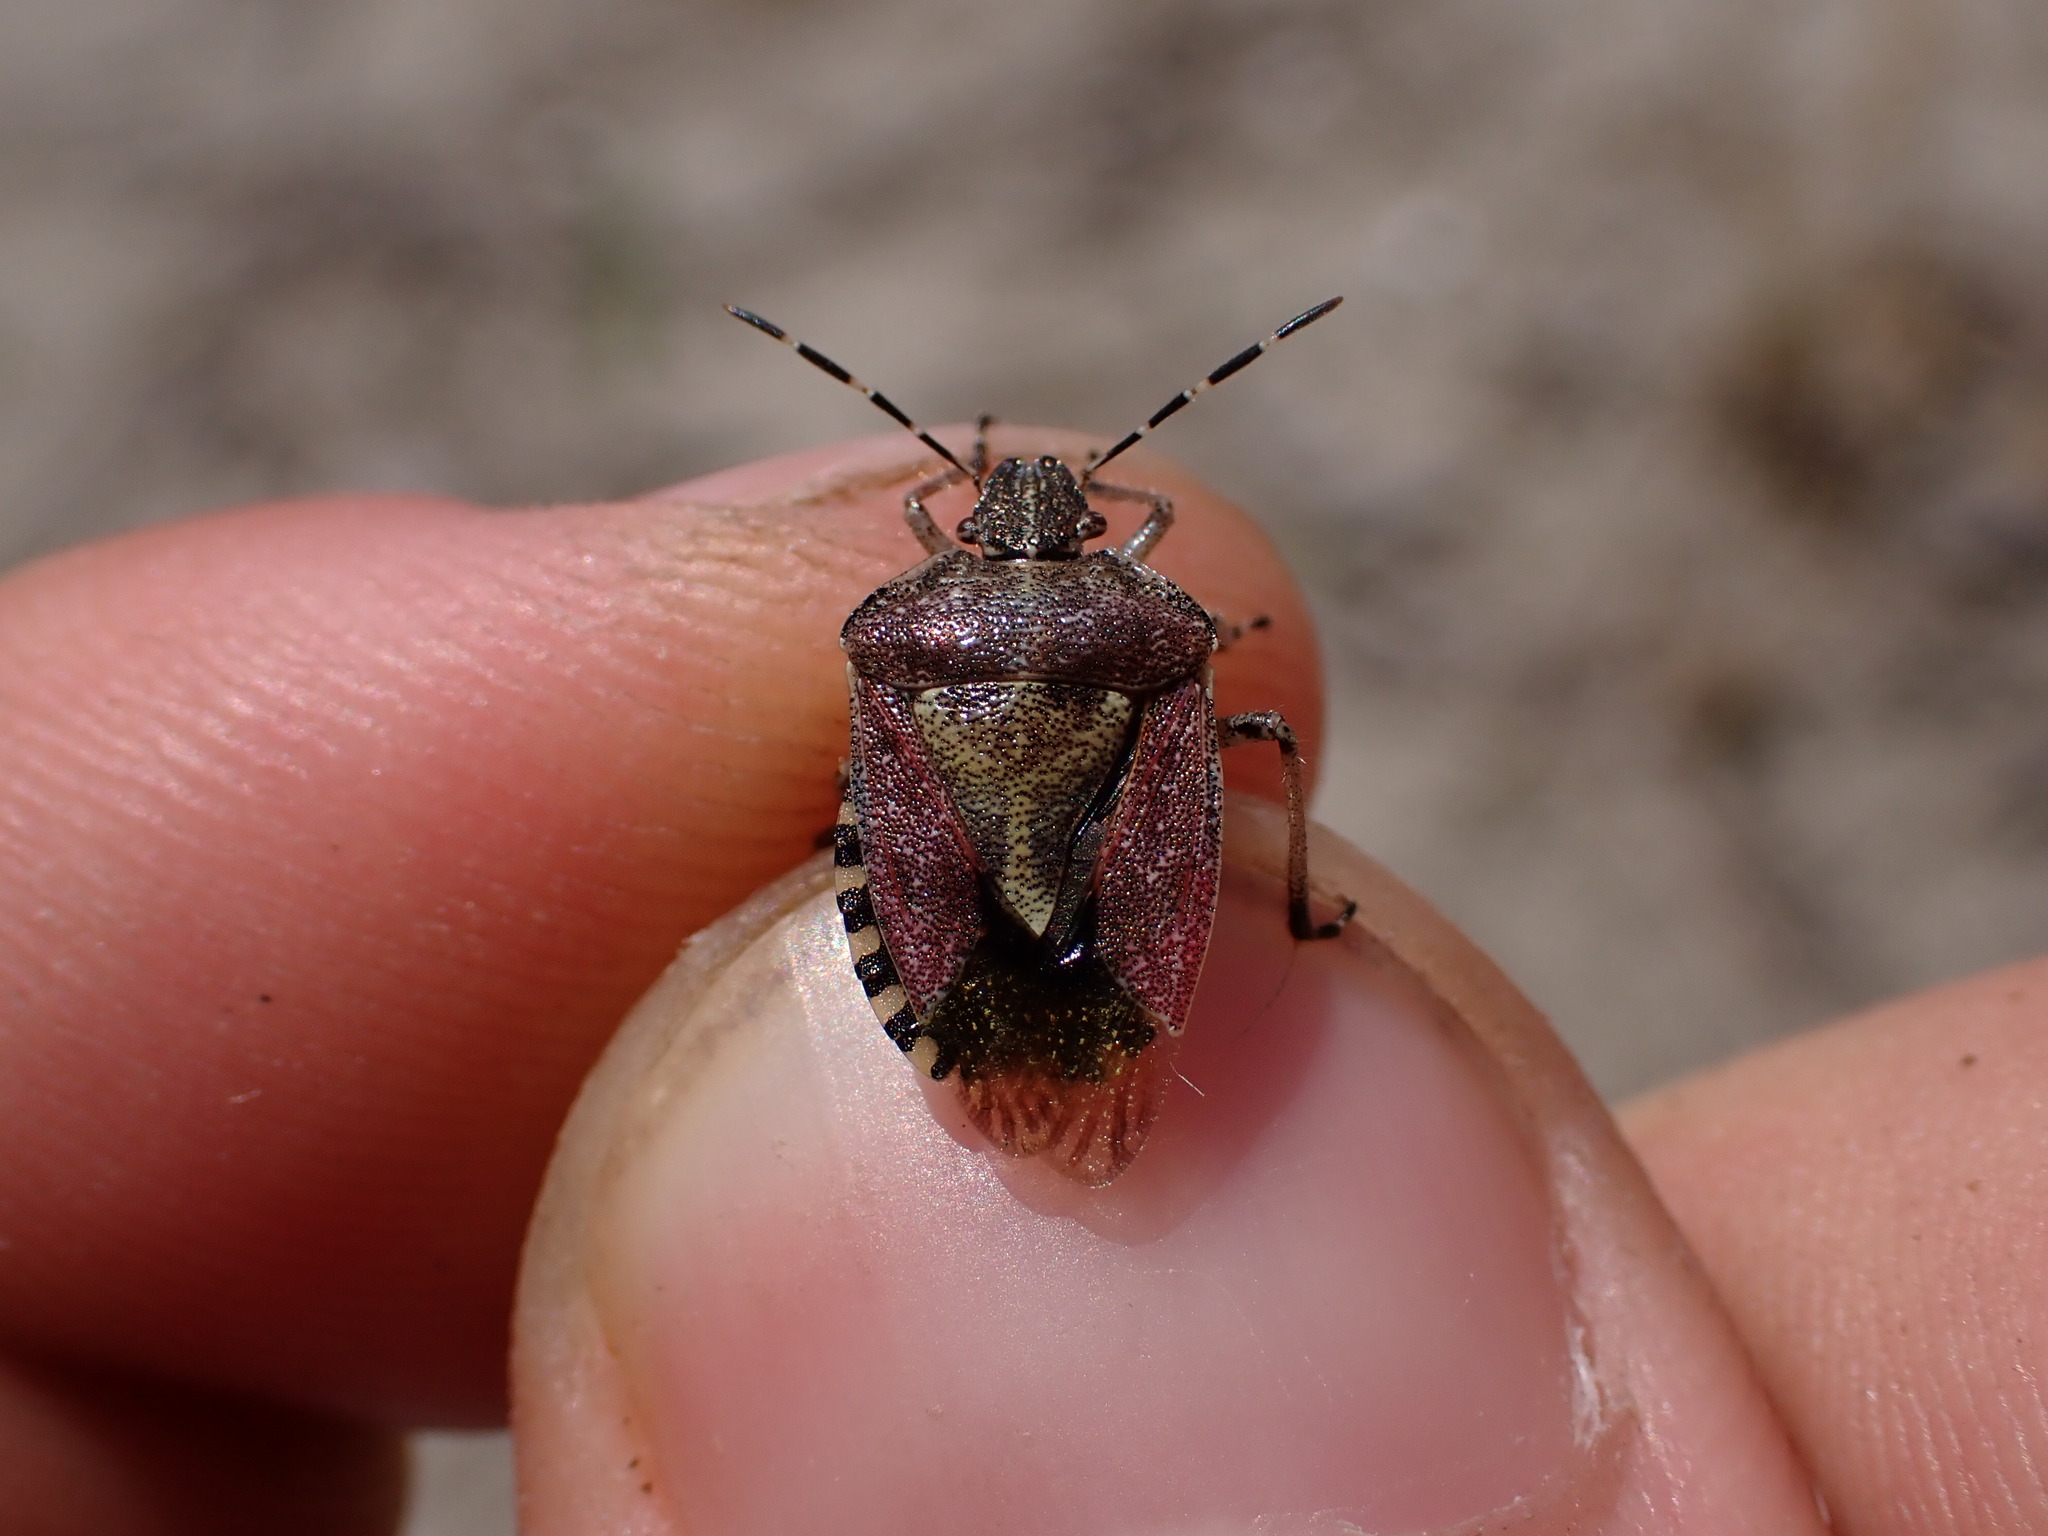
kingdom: Animalia
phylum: Arthropoda
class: Insecta
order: Hemiptera
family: Pentatomidae
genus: Dolycoris
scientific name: Dolycoris baccarum
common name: Sloe bug
